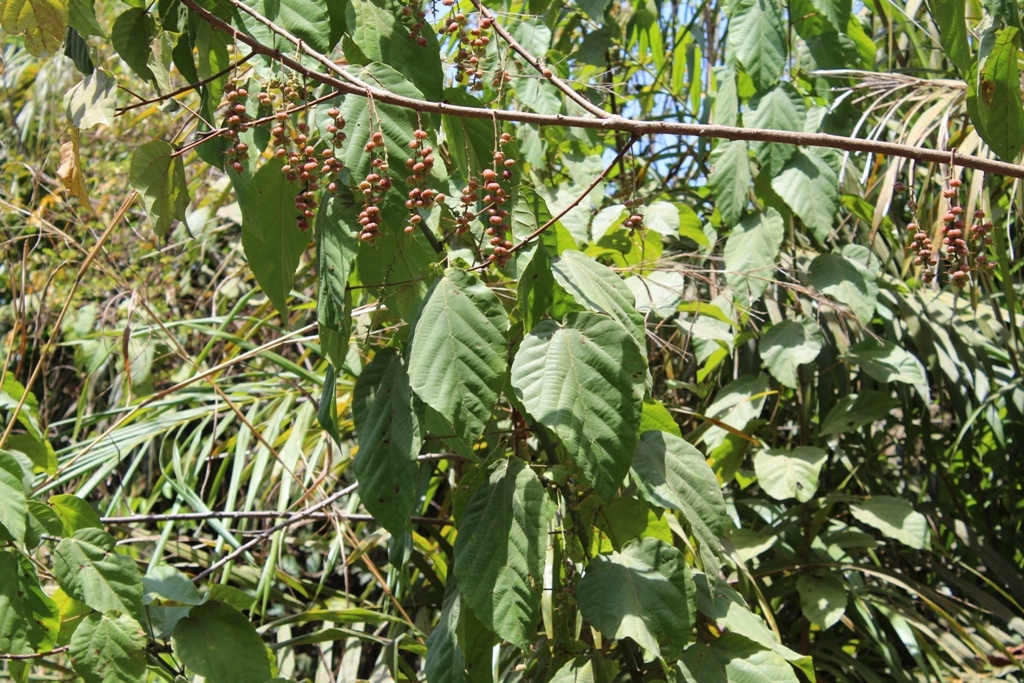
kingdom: Plantae
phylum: Tracheophyta
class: Magnoliopsida
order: Malpighiales
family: Euphorbiaceae
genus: Alchornea
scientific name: Alchornea cordifolia
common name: Christmasbush
